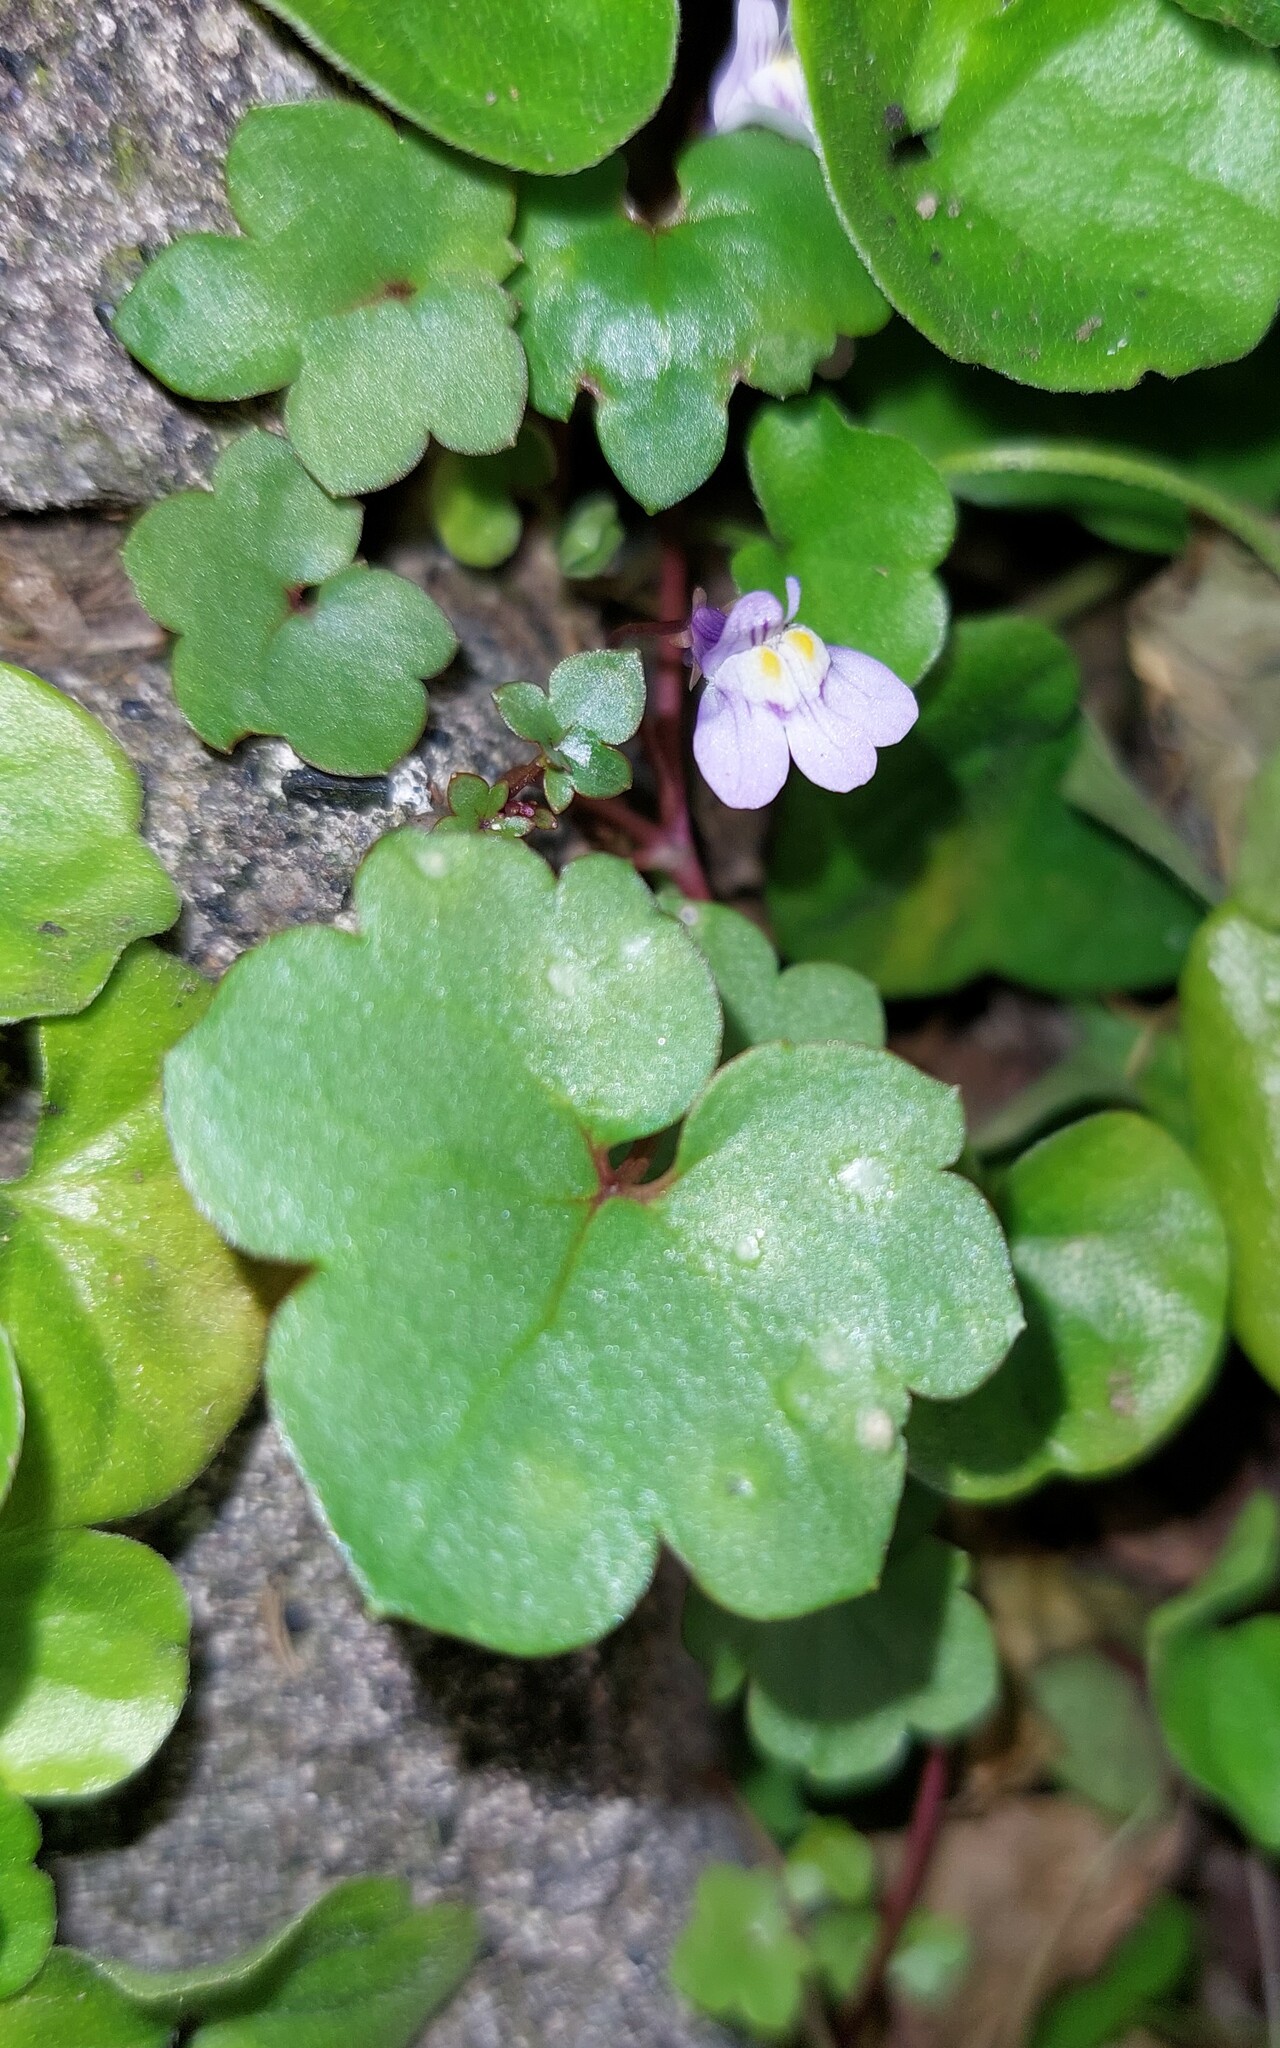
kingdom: Plantae
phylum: Tracheophyta
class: Magnoliopsida
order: Lamiales
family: Plantaginaceae
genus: Cymbalaria
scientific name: Cymbalaria muralis
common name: Ivy-leaved toadflax
